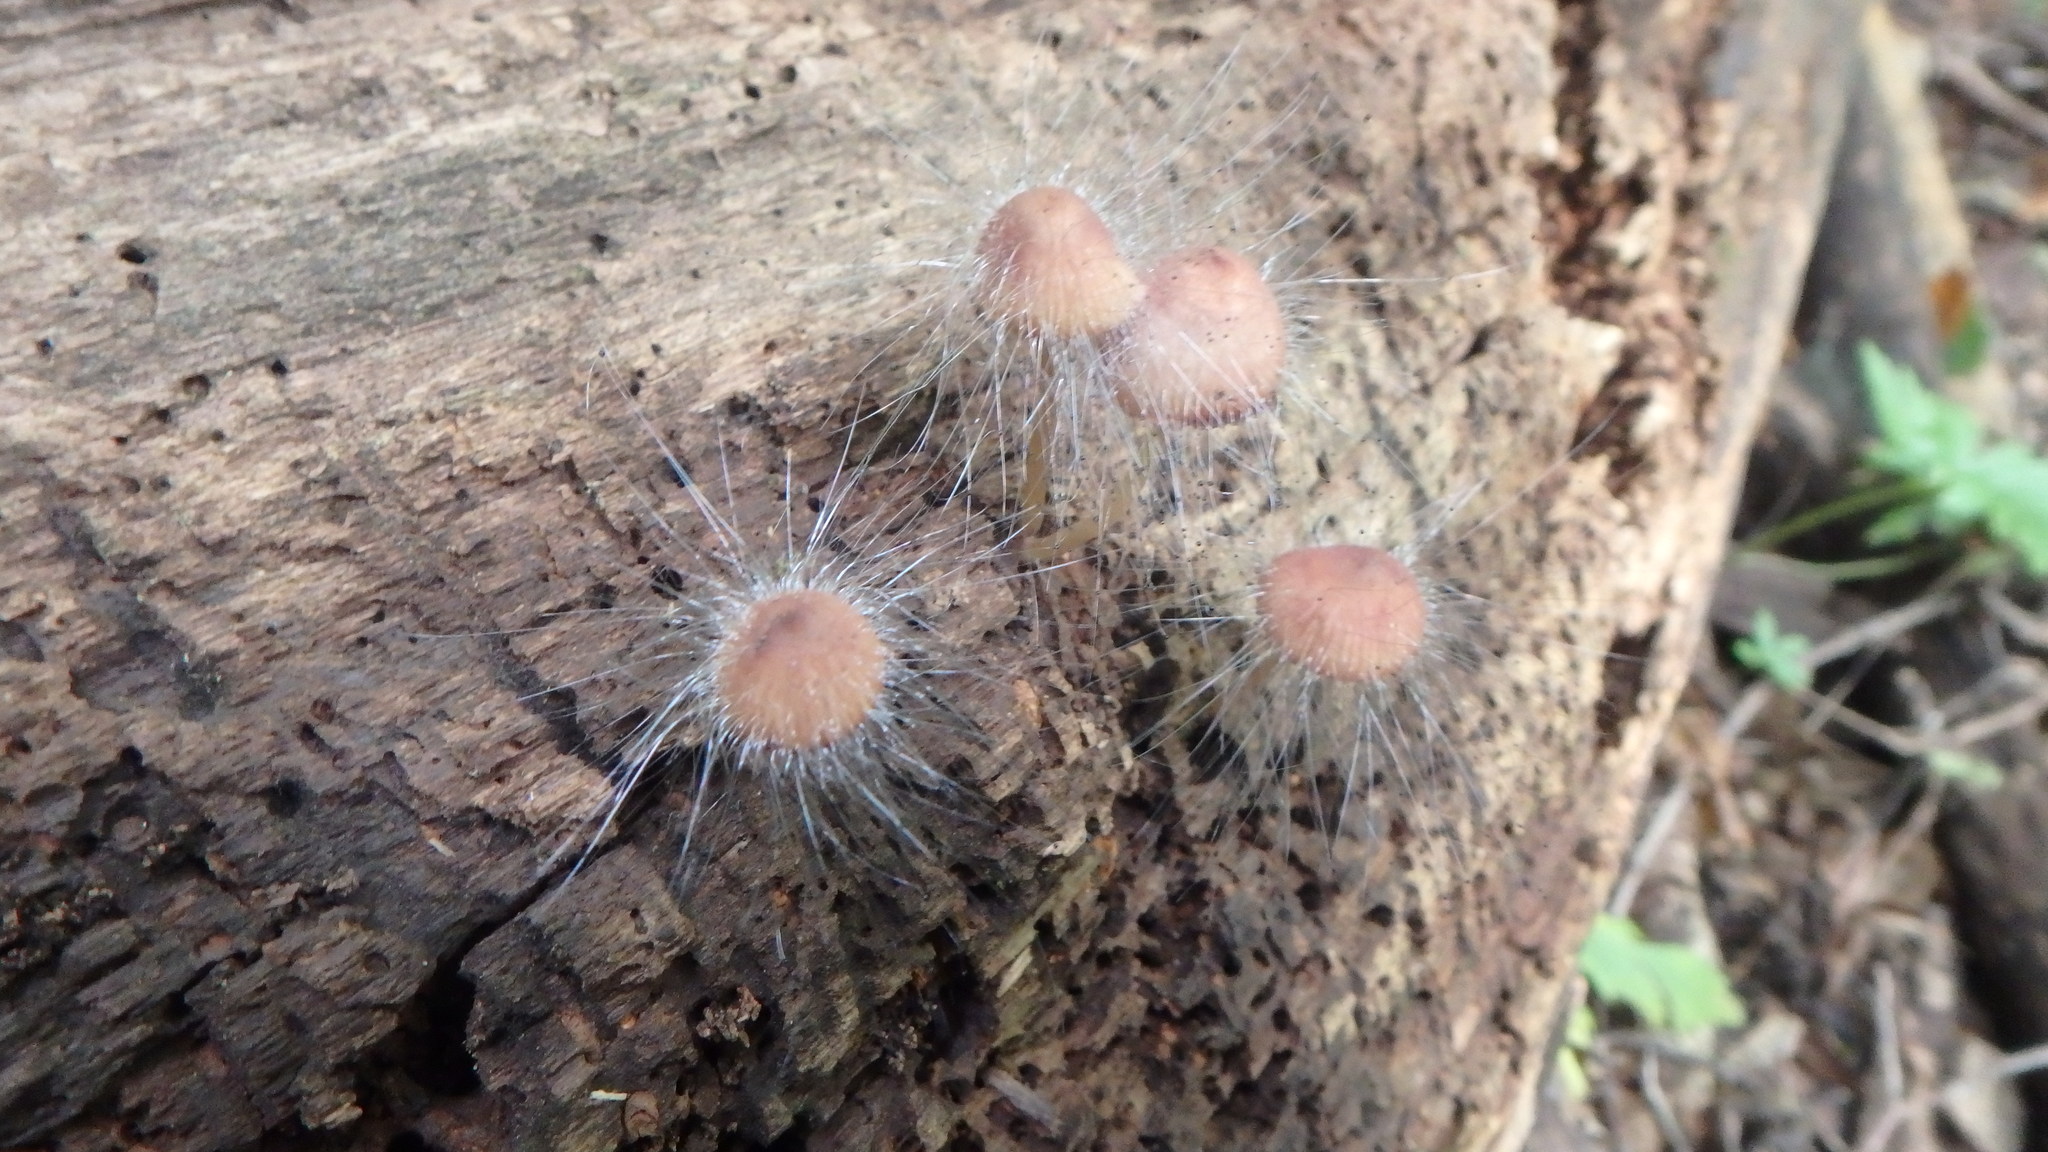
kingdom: Fungi
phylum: Mucoromycota
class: Mucoromycetes
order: Mucorales
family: Phycomycetaceae
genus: Spinellus
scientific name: Spinellus fusiger
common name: Bonnet mould
